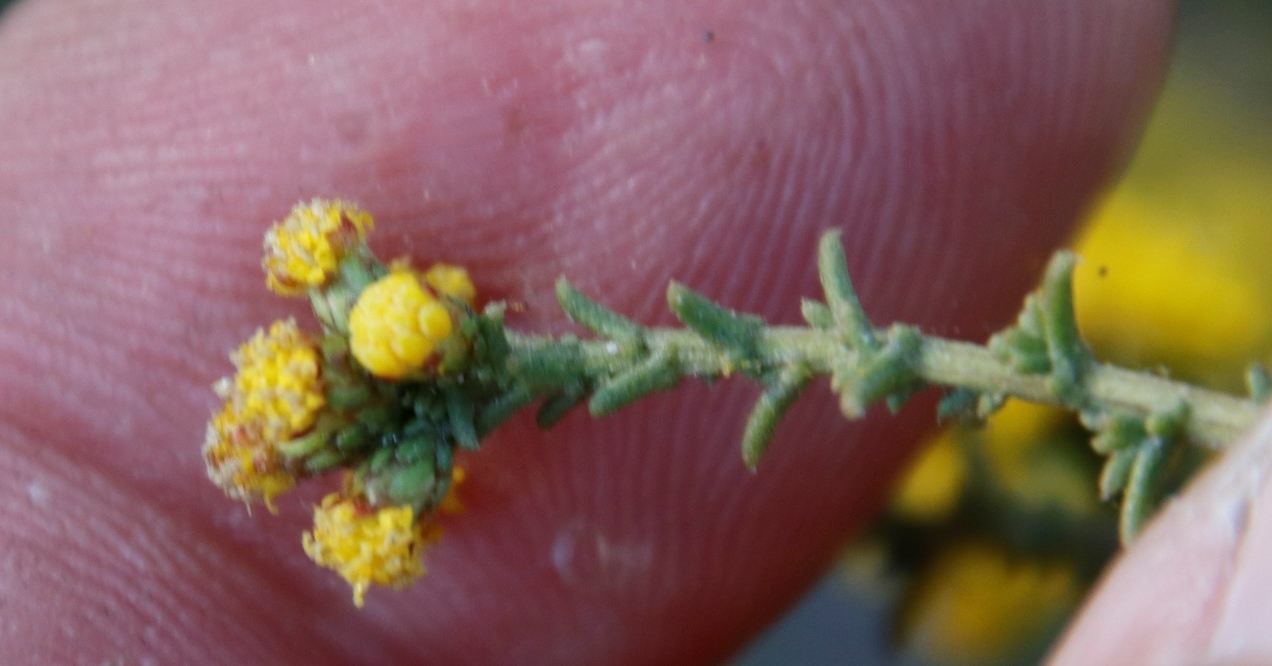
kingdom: Plantae
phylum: Tracheophyta
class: Magnoliopsida
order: Asterales
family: Asteraceae
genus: Marasmodes
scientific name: Marasmodes fasciculata
